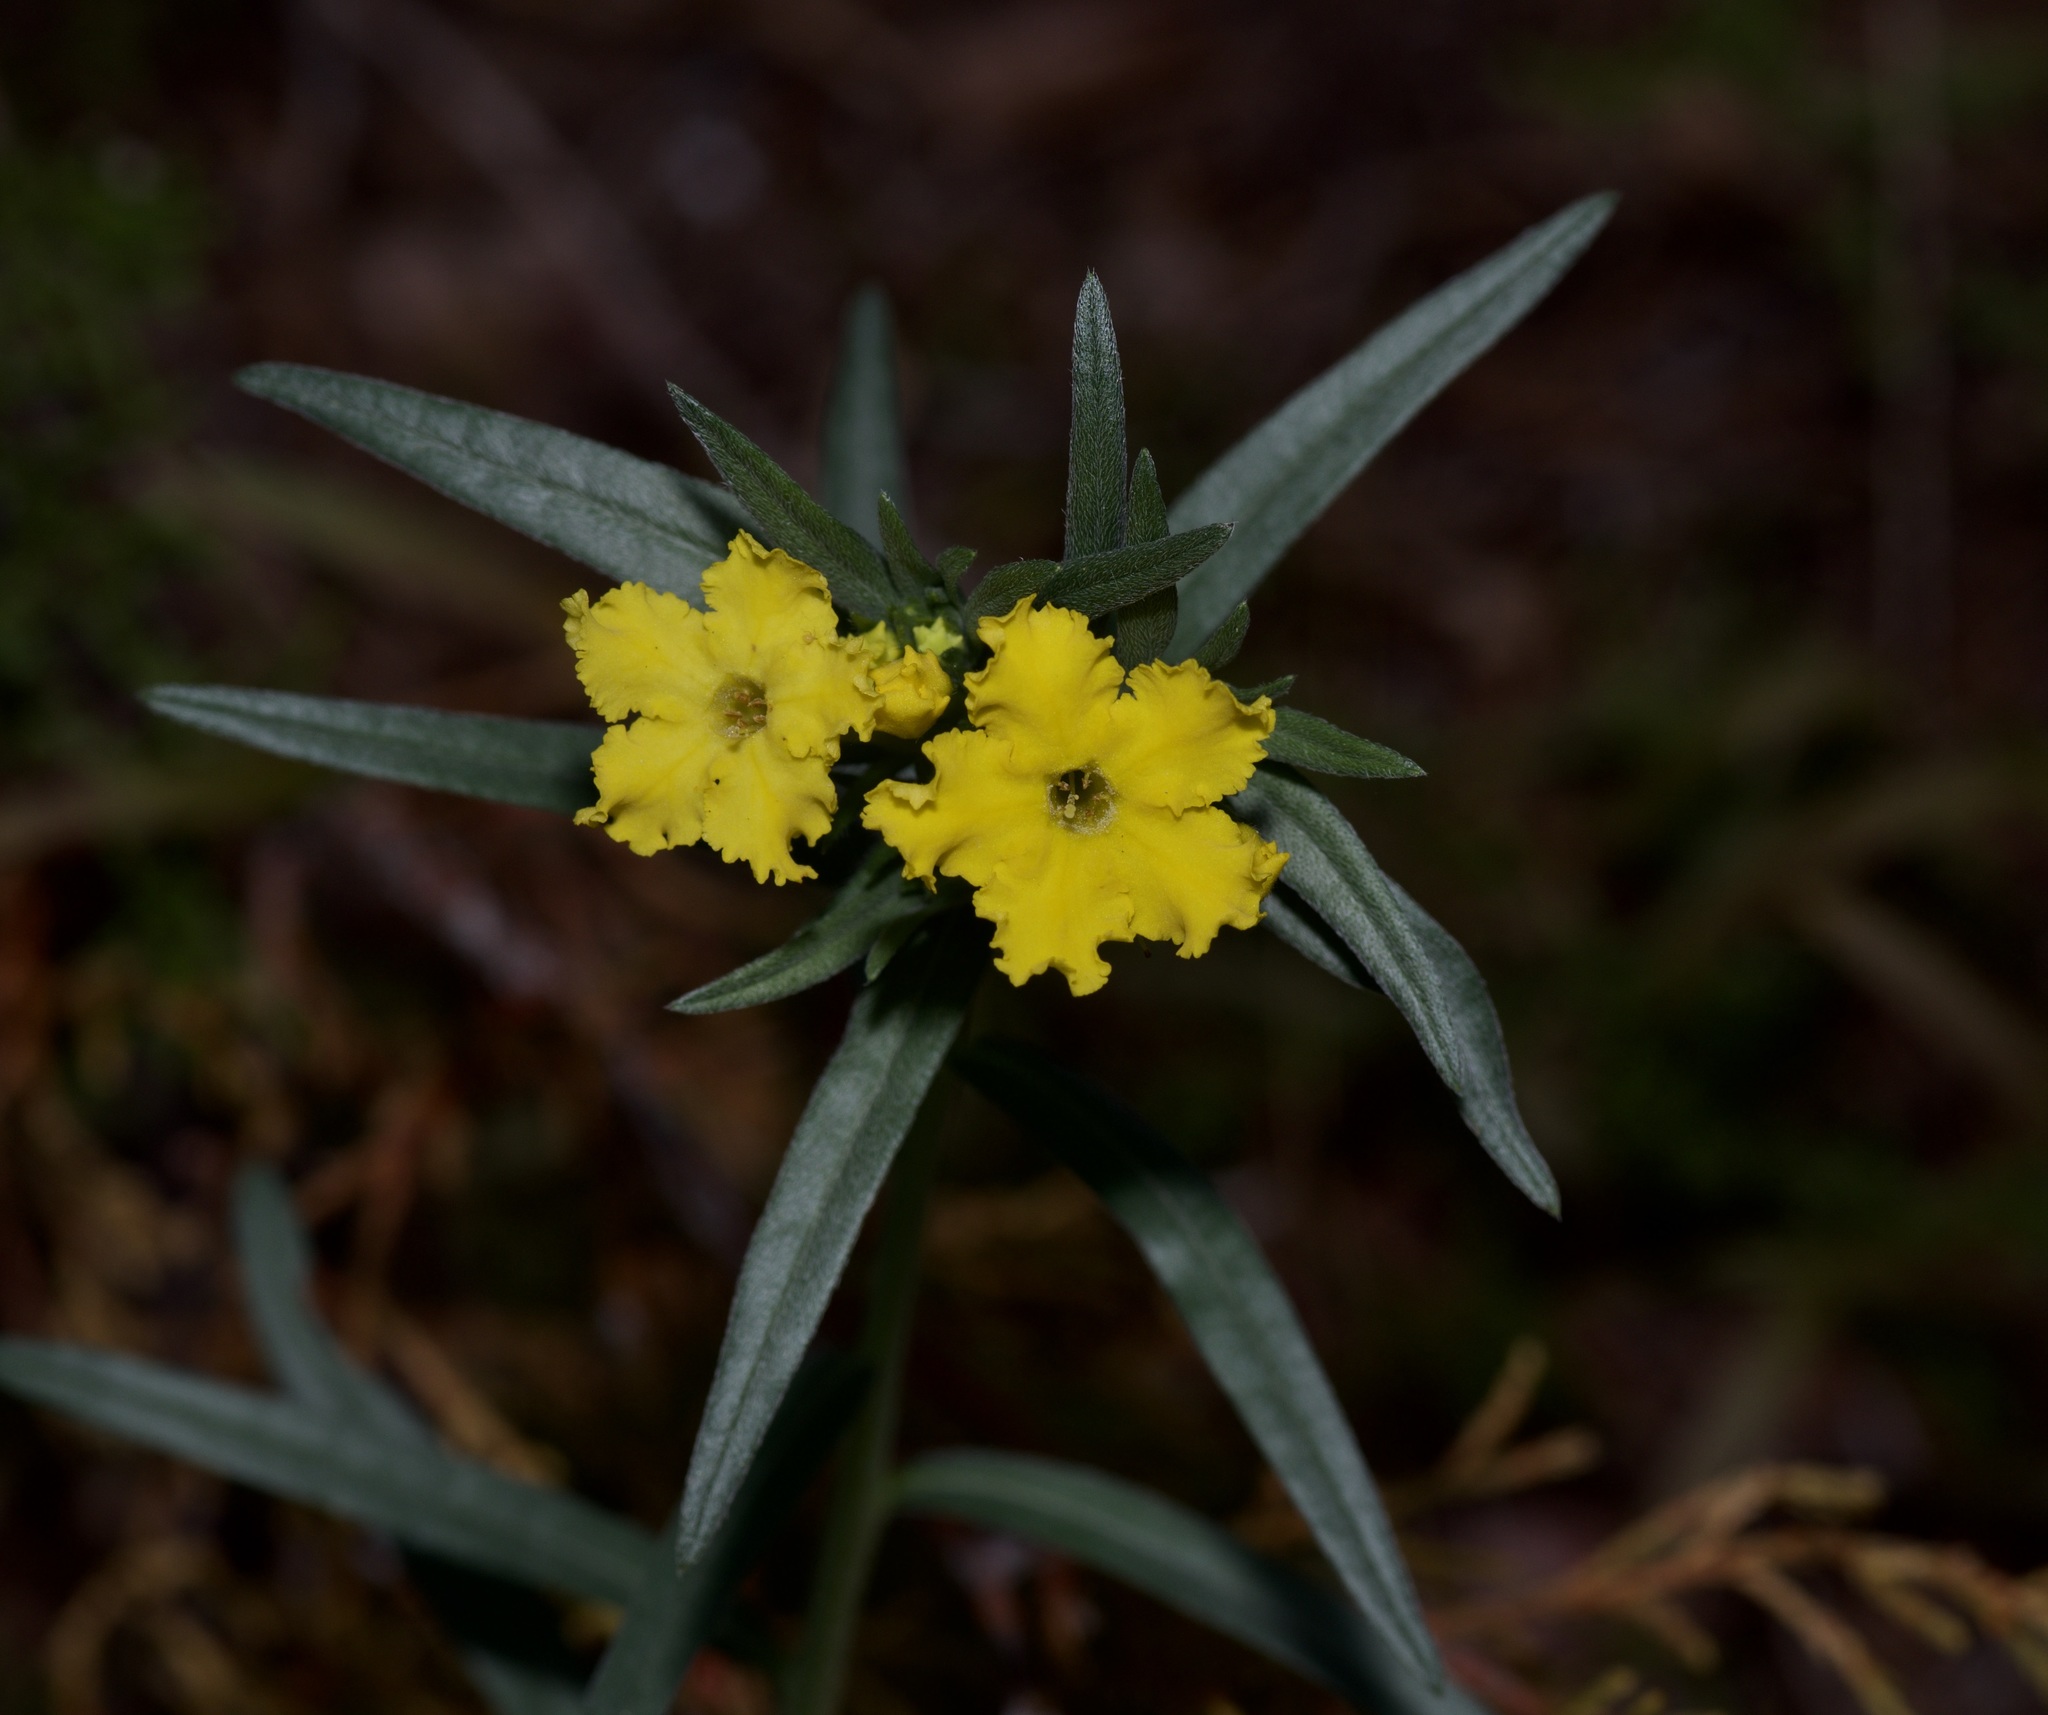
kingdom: Plantae
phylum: Tracheophyta
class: Magnoliopsida
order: Boraginales
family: Boraginaceae
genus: Lithospermum
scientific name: Lithospermum incisum
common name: Fringed gromwell
